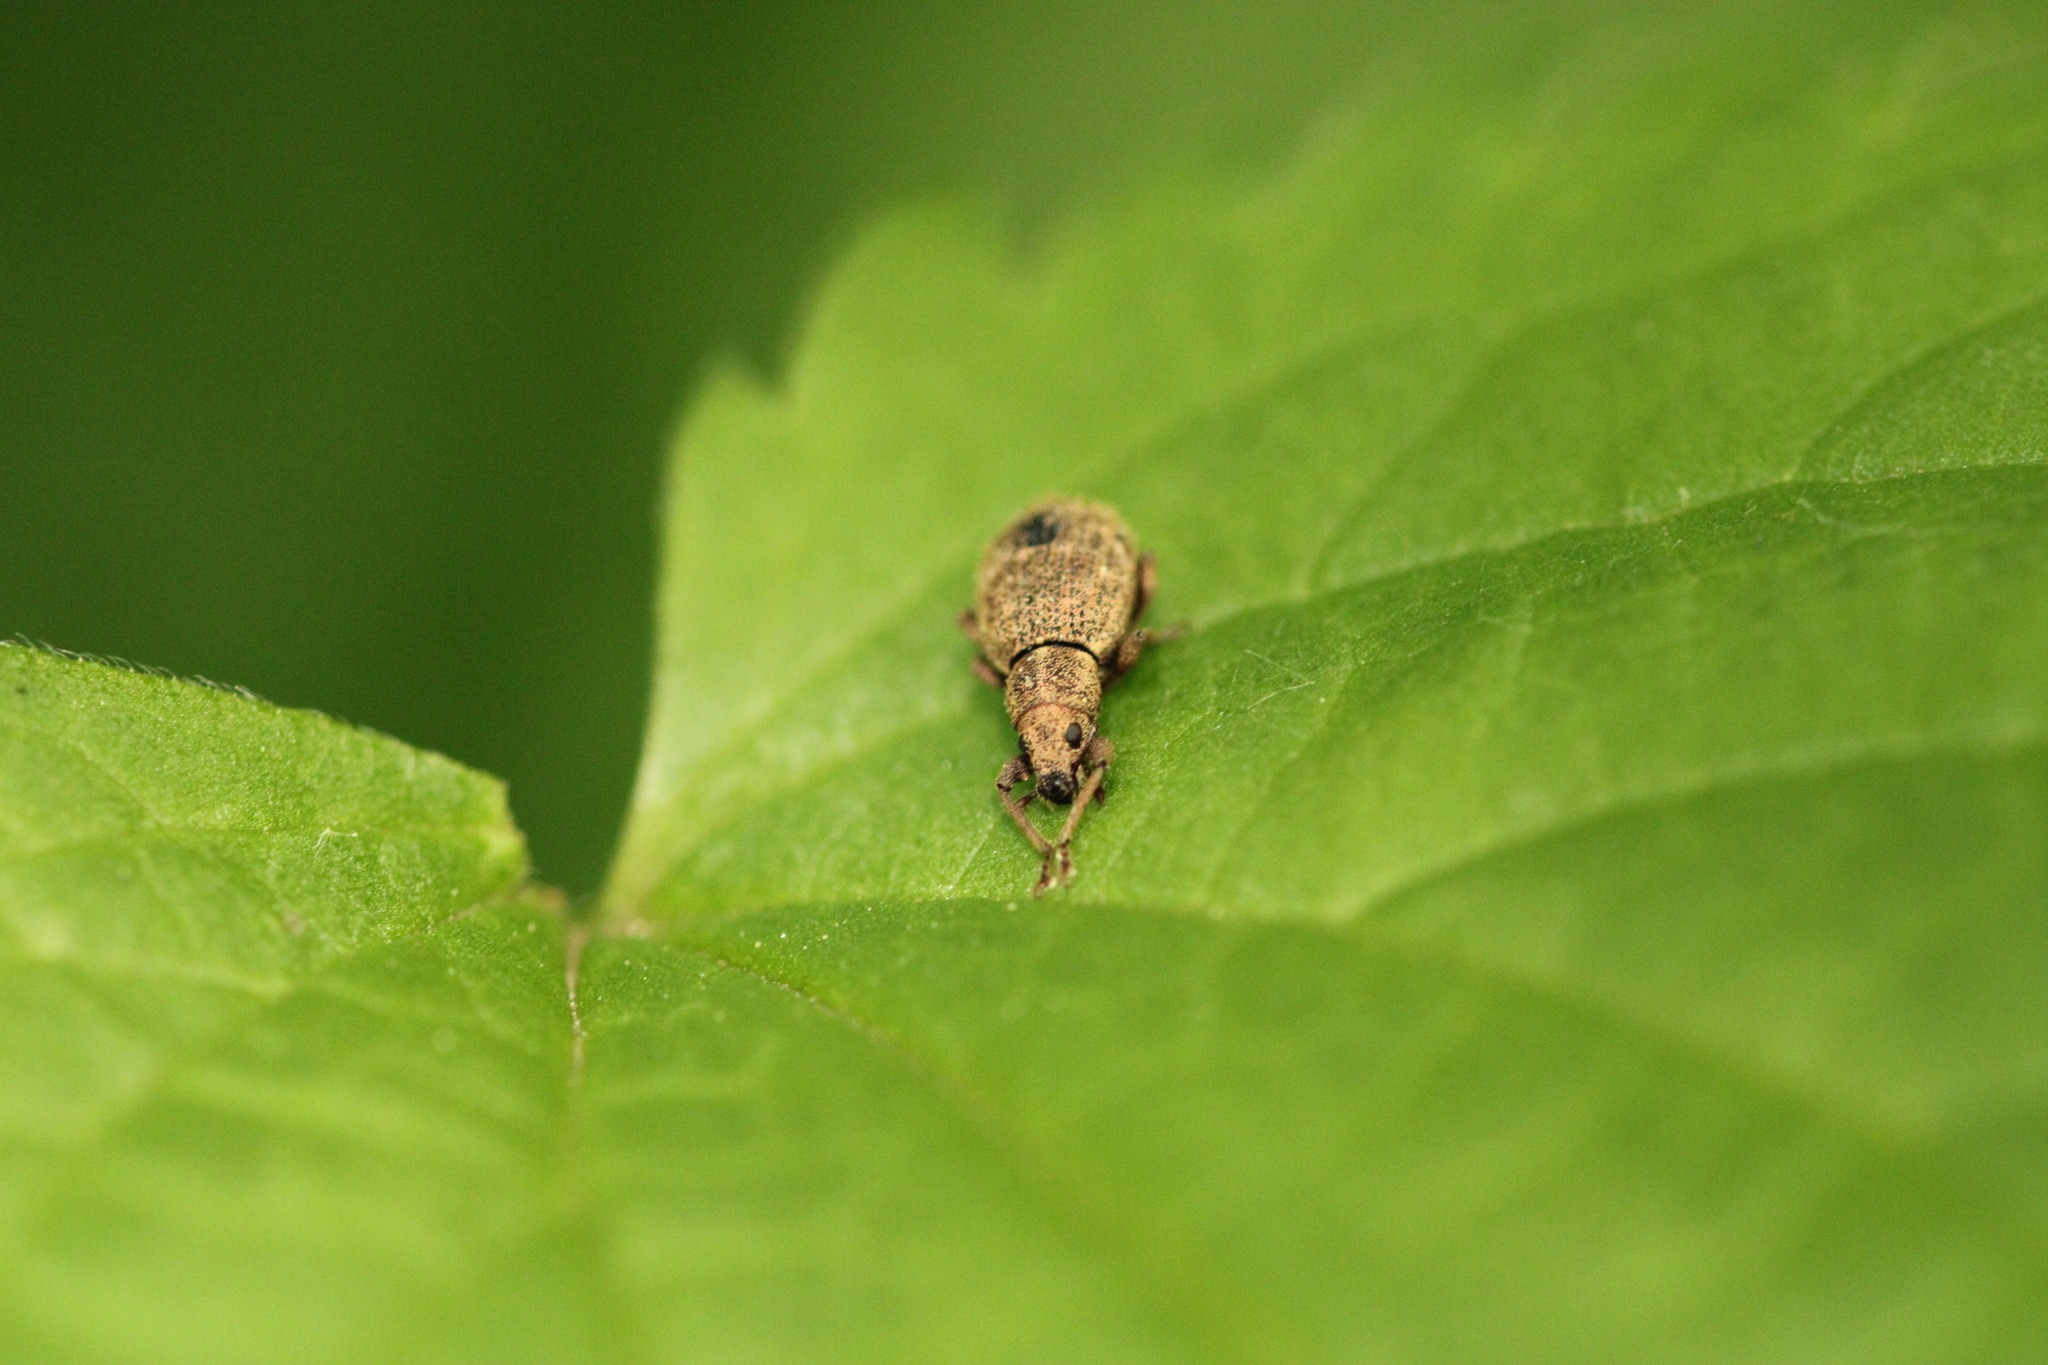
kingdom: Animalia
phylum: Arthropoda
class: Insecta
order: Coleoptera
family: Curculionidae
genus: Sciaphilus
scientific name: Sciaphilus asperatus
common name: Weevil
